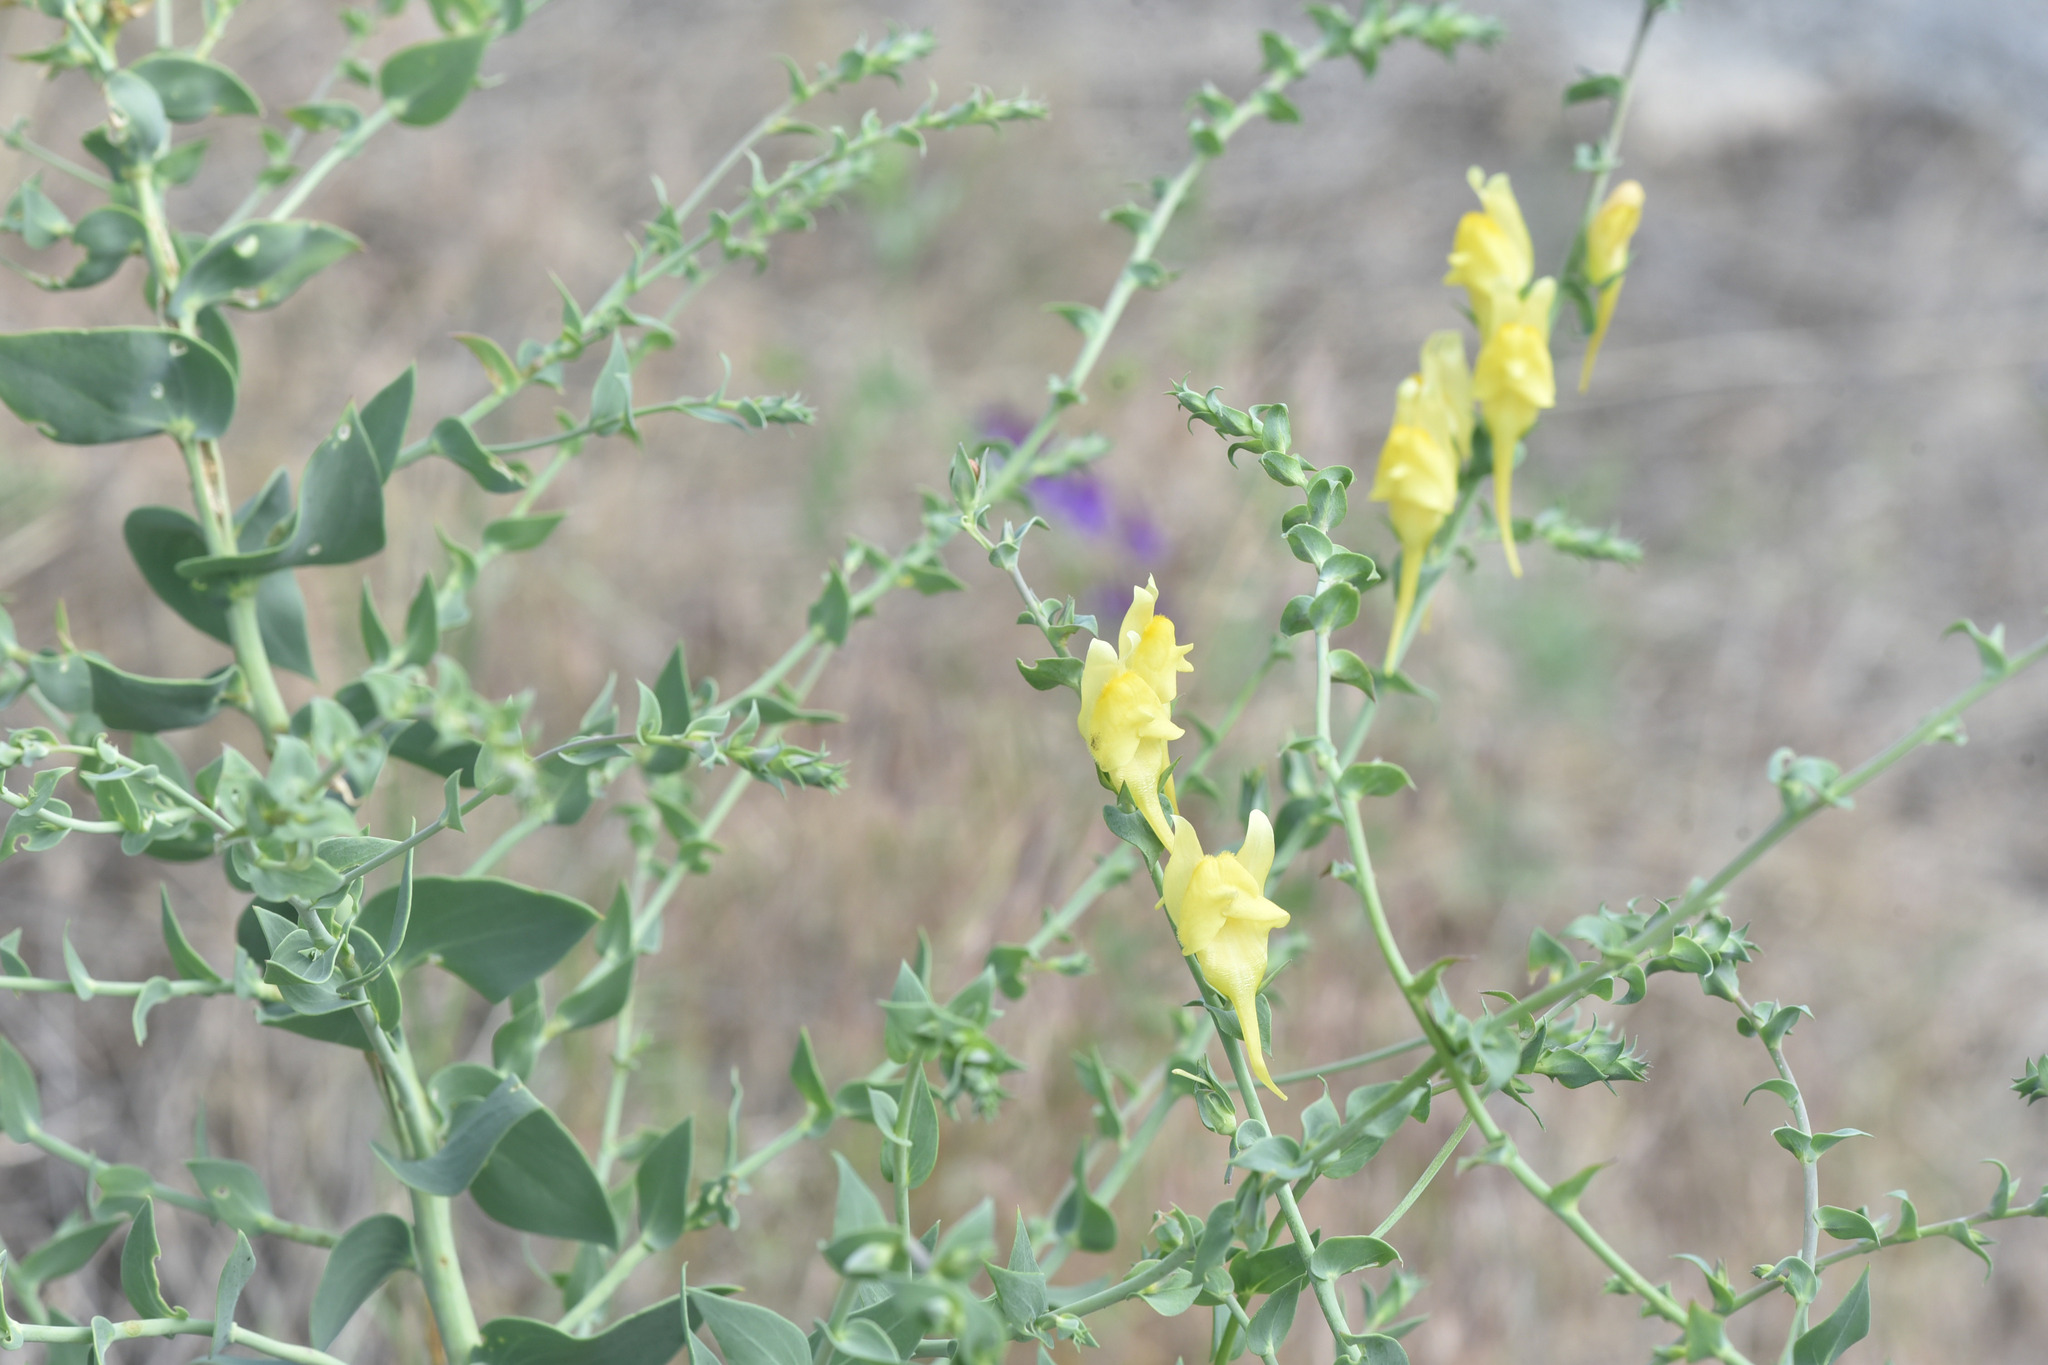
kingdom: Plantae
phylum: Tracheophyta
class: Magnoliopsida
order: Lamiales
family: Plantaginaceae
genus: Linaria
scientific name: Linaria dalmatica
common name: Dalmatian toadflax
